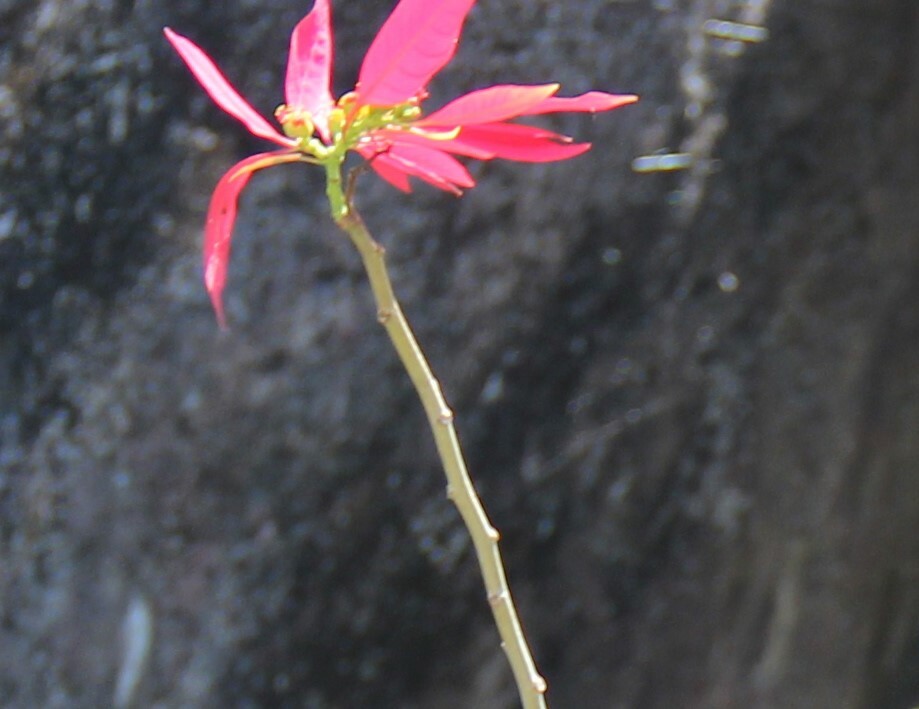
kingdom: Plantae
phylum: Tracheophyta
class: Magnoliopsida
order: Malpighiales
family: Euphorbiaceae
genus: Euphorbia
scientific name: Euphorbia pulcherrima
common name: Christmas-flower
